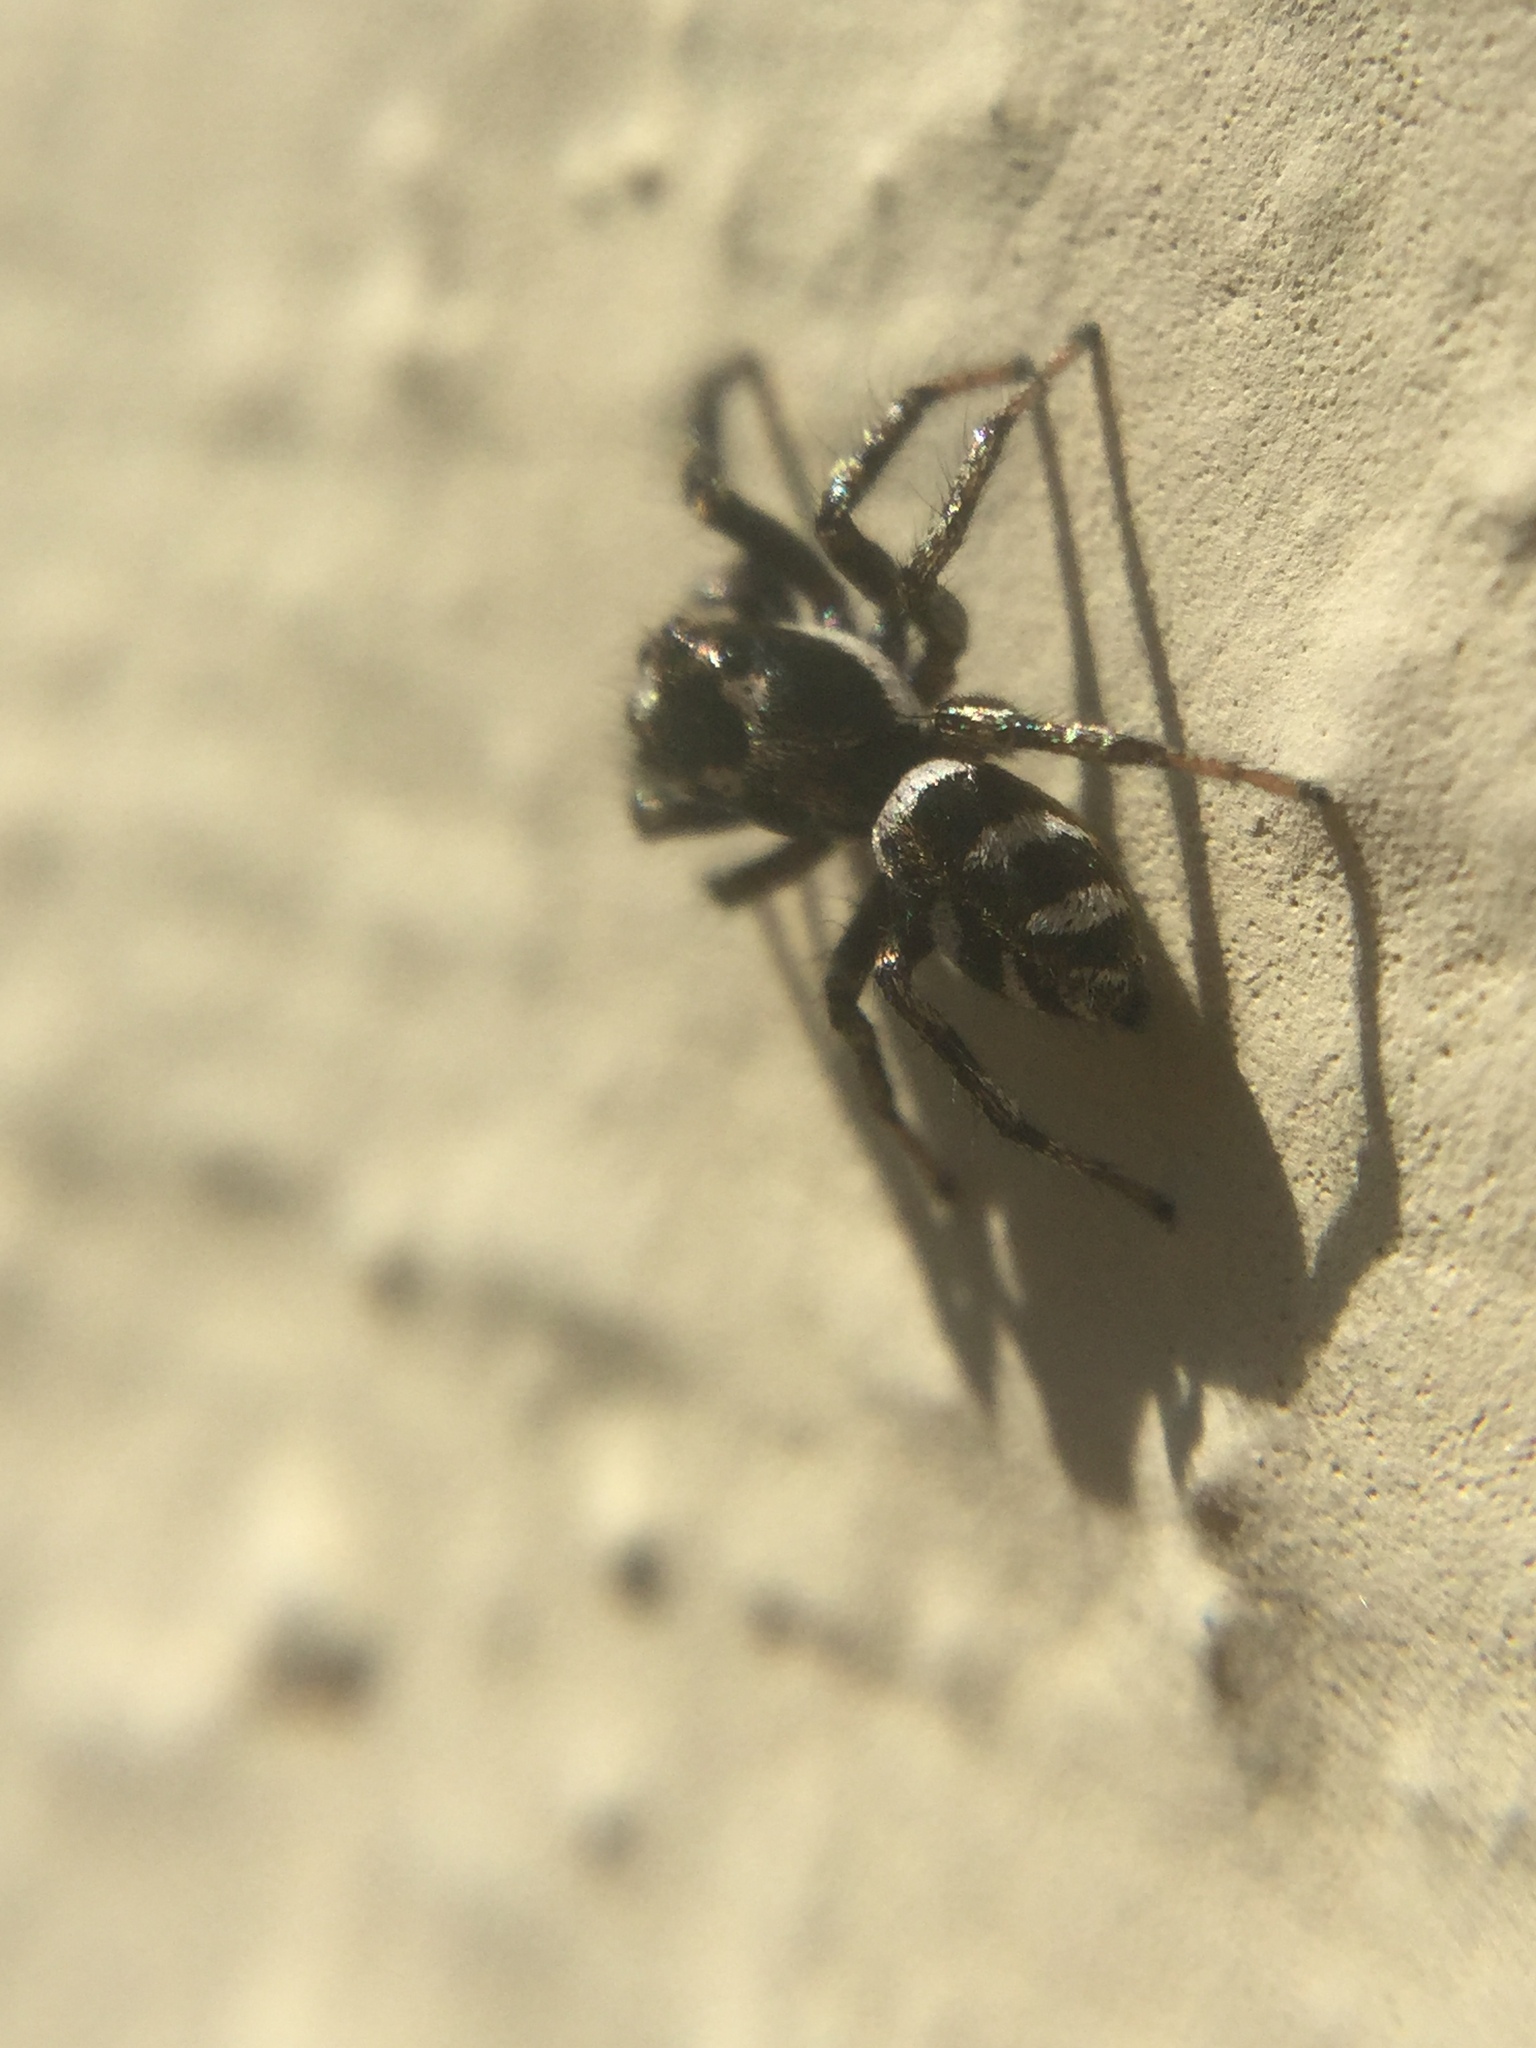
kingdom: Animalia
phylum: Arthropoda
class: Arachnida
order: Araneae
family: Salticidae
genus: Salticus
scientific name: Salticus scenicus
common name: Zebra jumper
